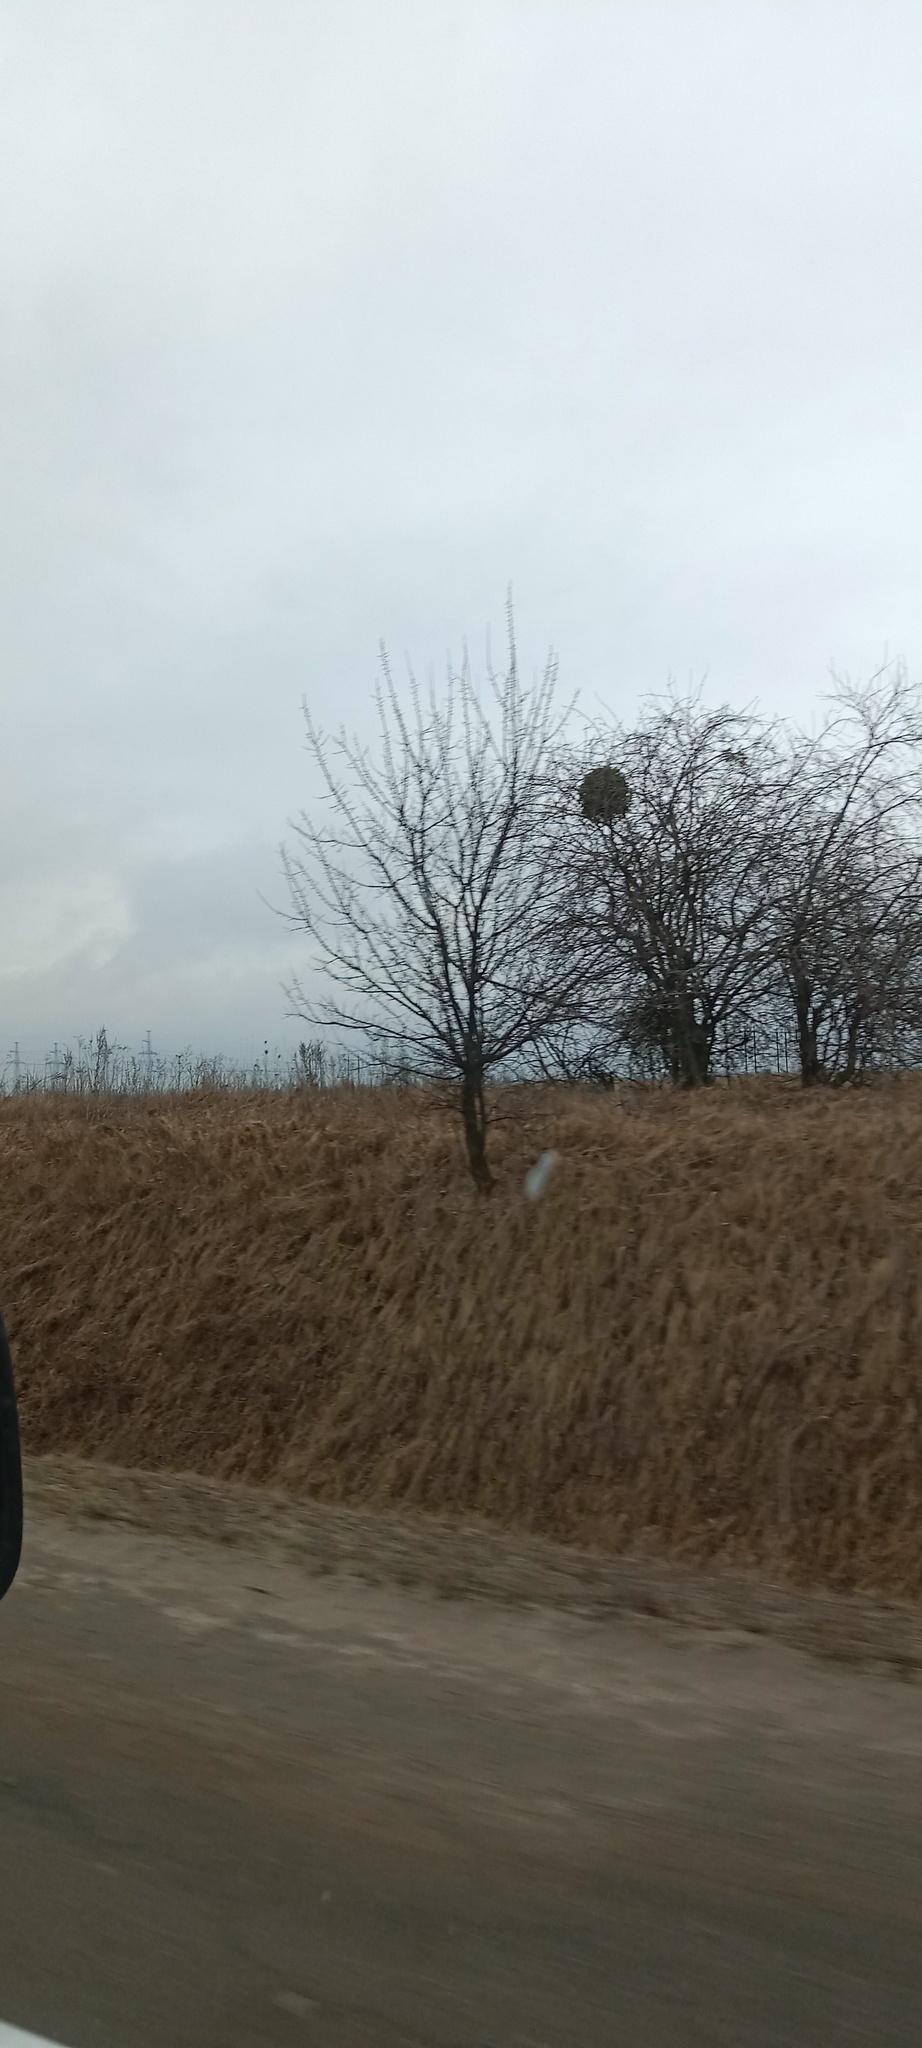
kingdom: Plantae
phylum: Tracheophyta
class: Magnoliopsida
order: Santalales
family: Viscaceae
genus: Viscum
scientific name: Viscum album
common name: Mistletoe
